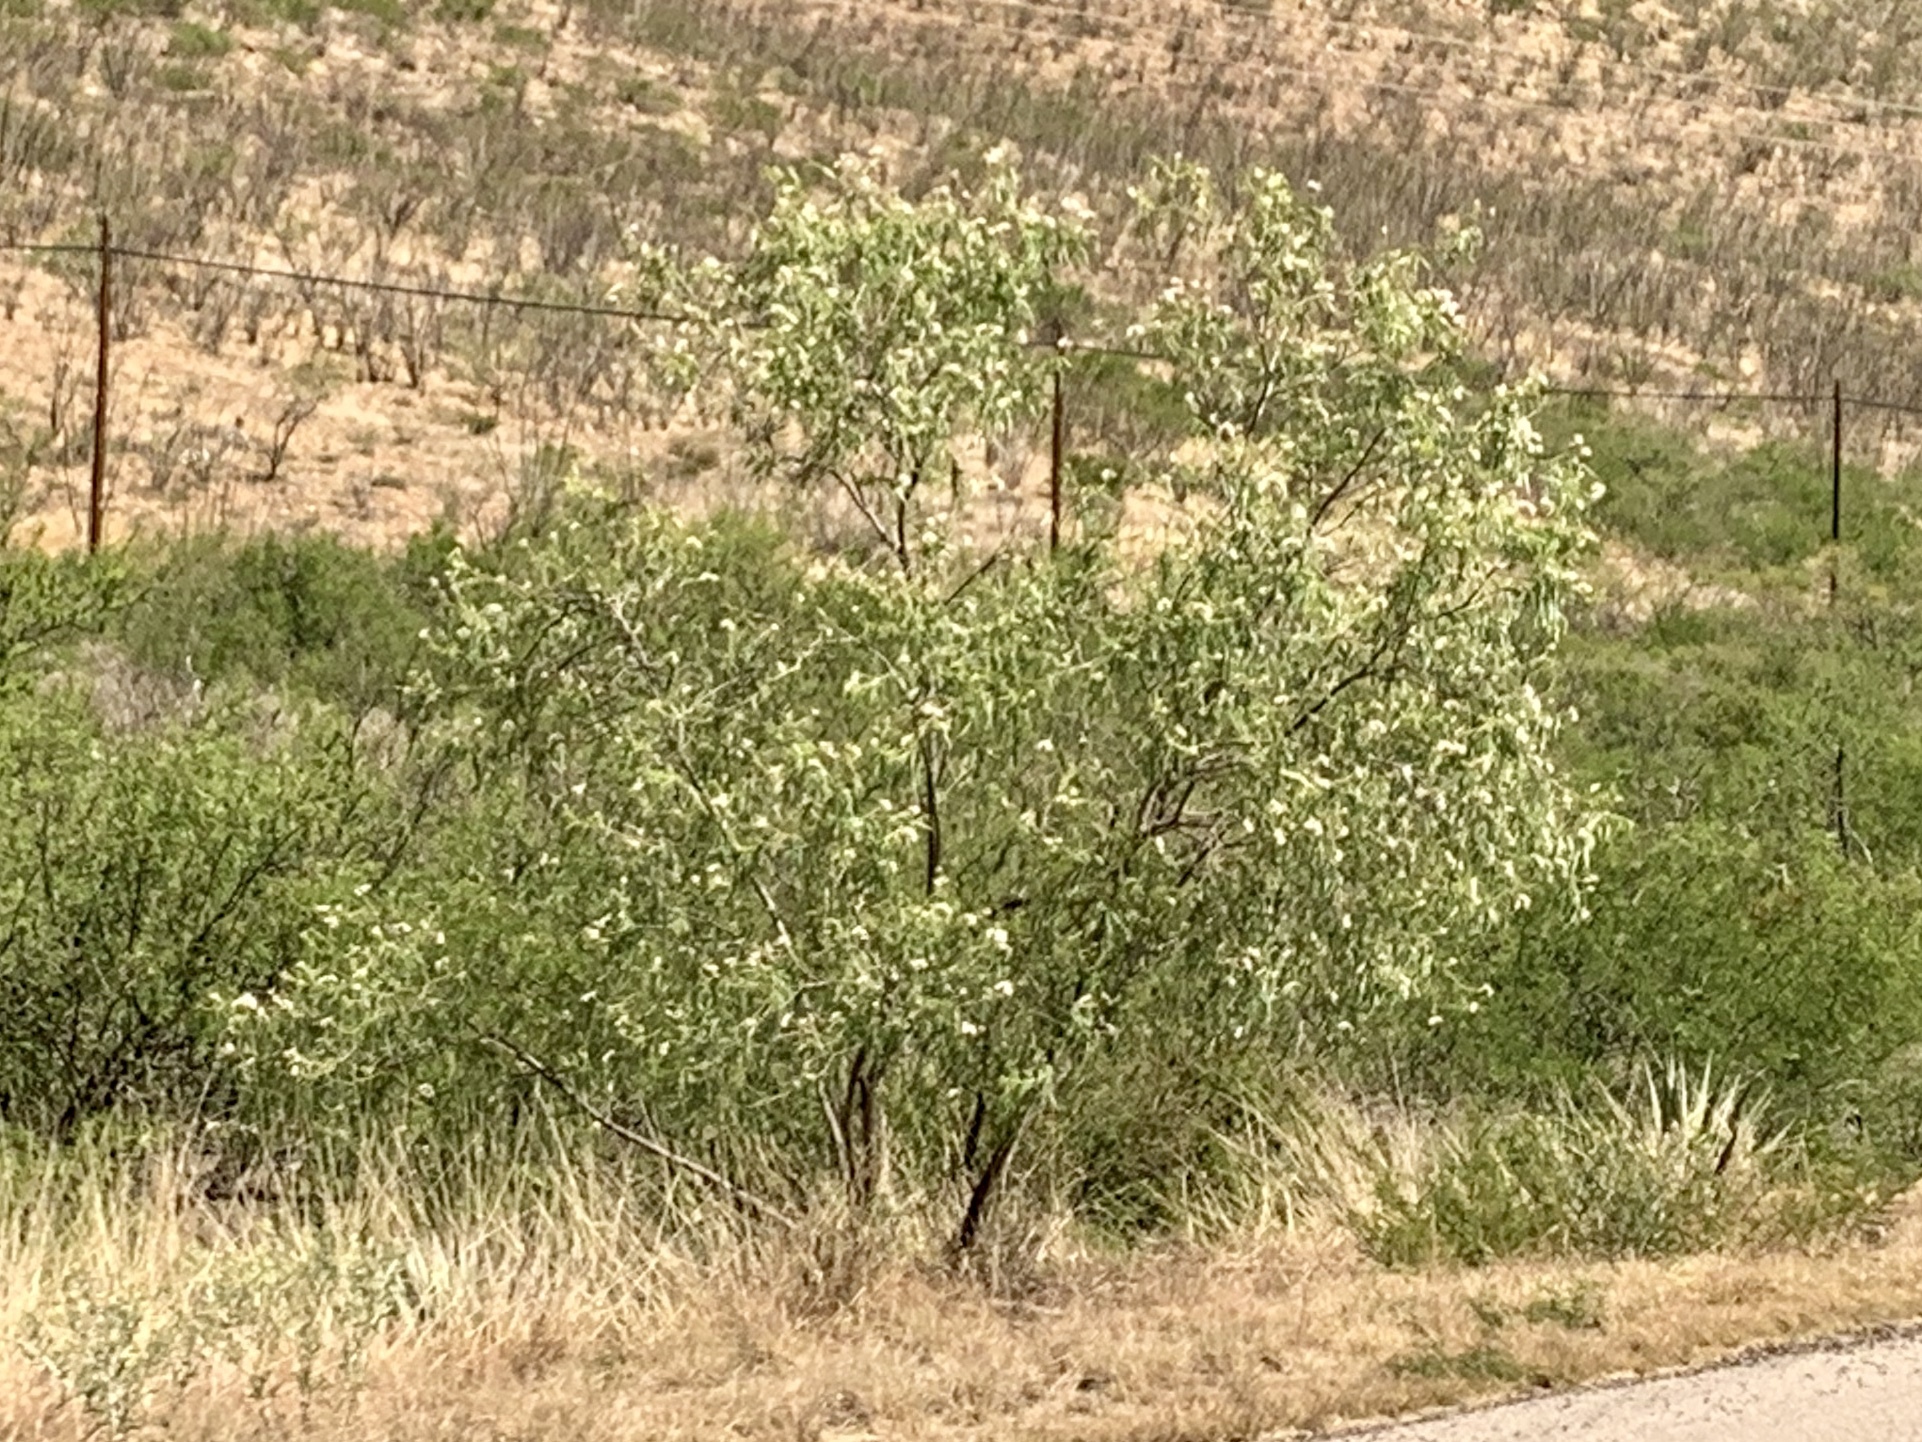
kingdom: Plantae
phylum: Tracheophyta
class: Magnoliopsida
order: Lamiales
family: Bignoniaceae
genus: Chilopsis
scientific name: Chilopsis linearis
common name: Desert-willow
